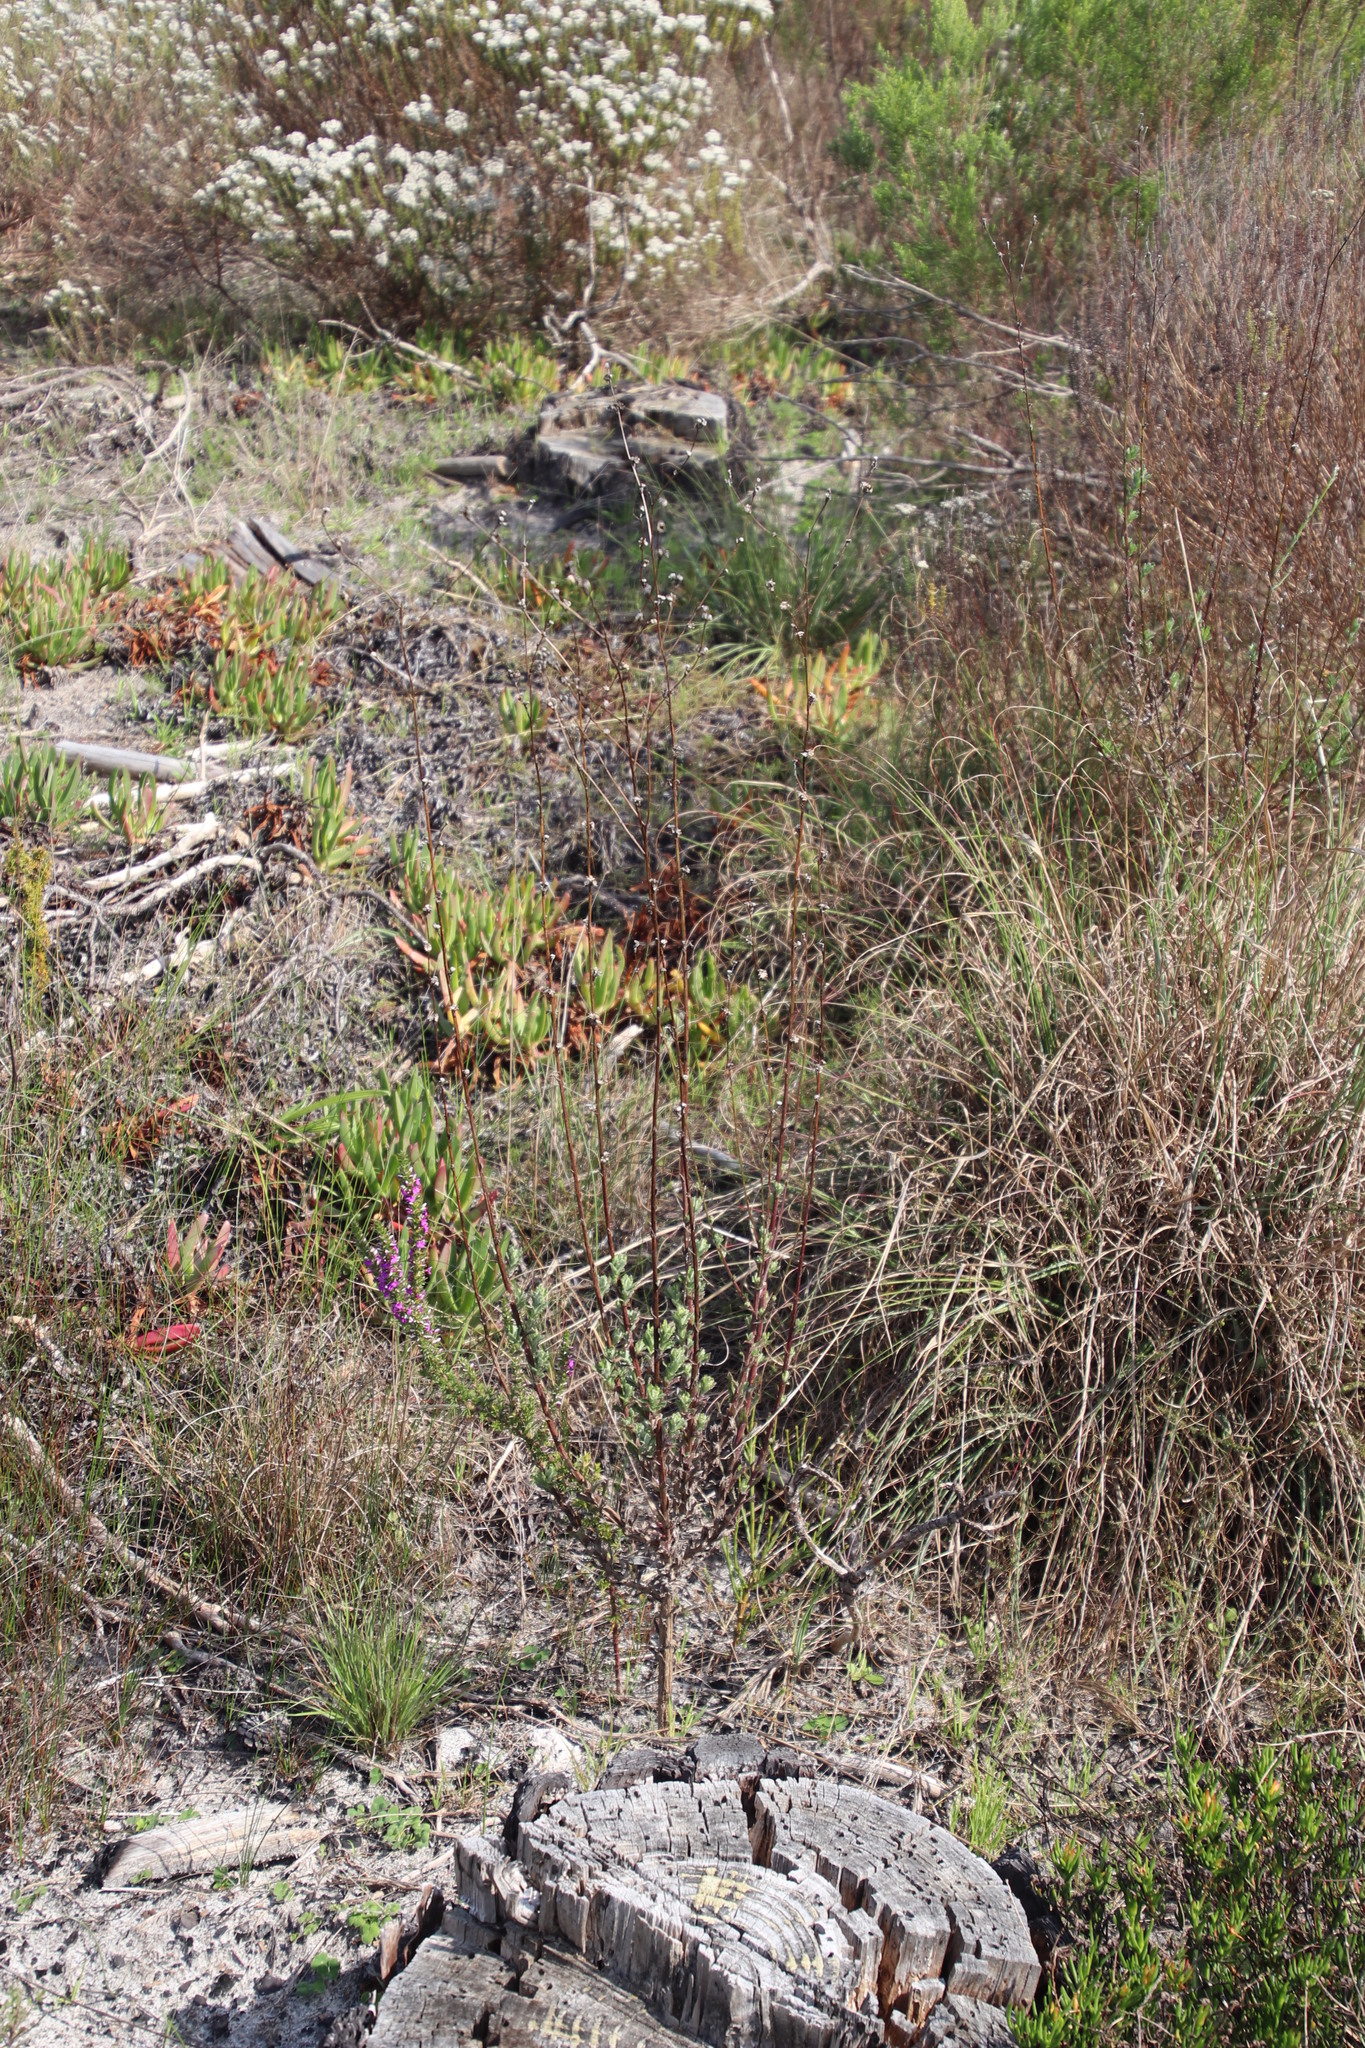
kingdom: Plantae
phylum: Tracheophyta
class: Magnoliopsida
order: Asterales
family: Asteraceae
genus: Senecio
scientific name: Senecio pubigerus
